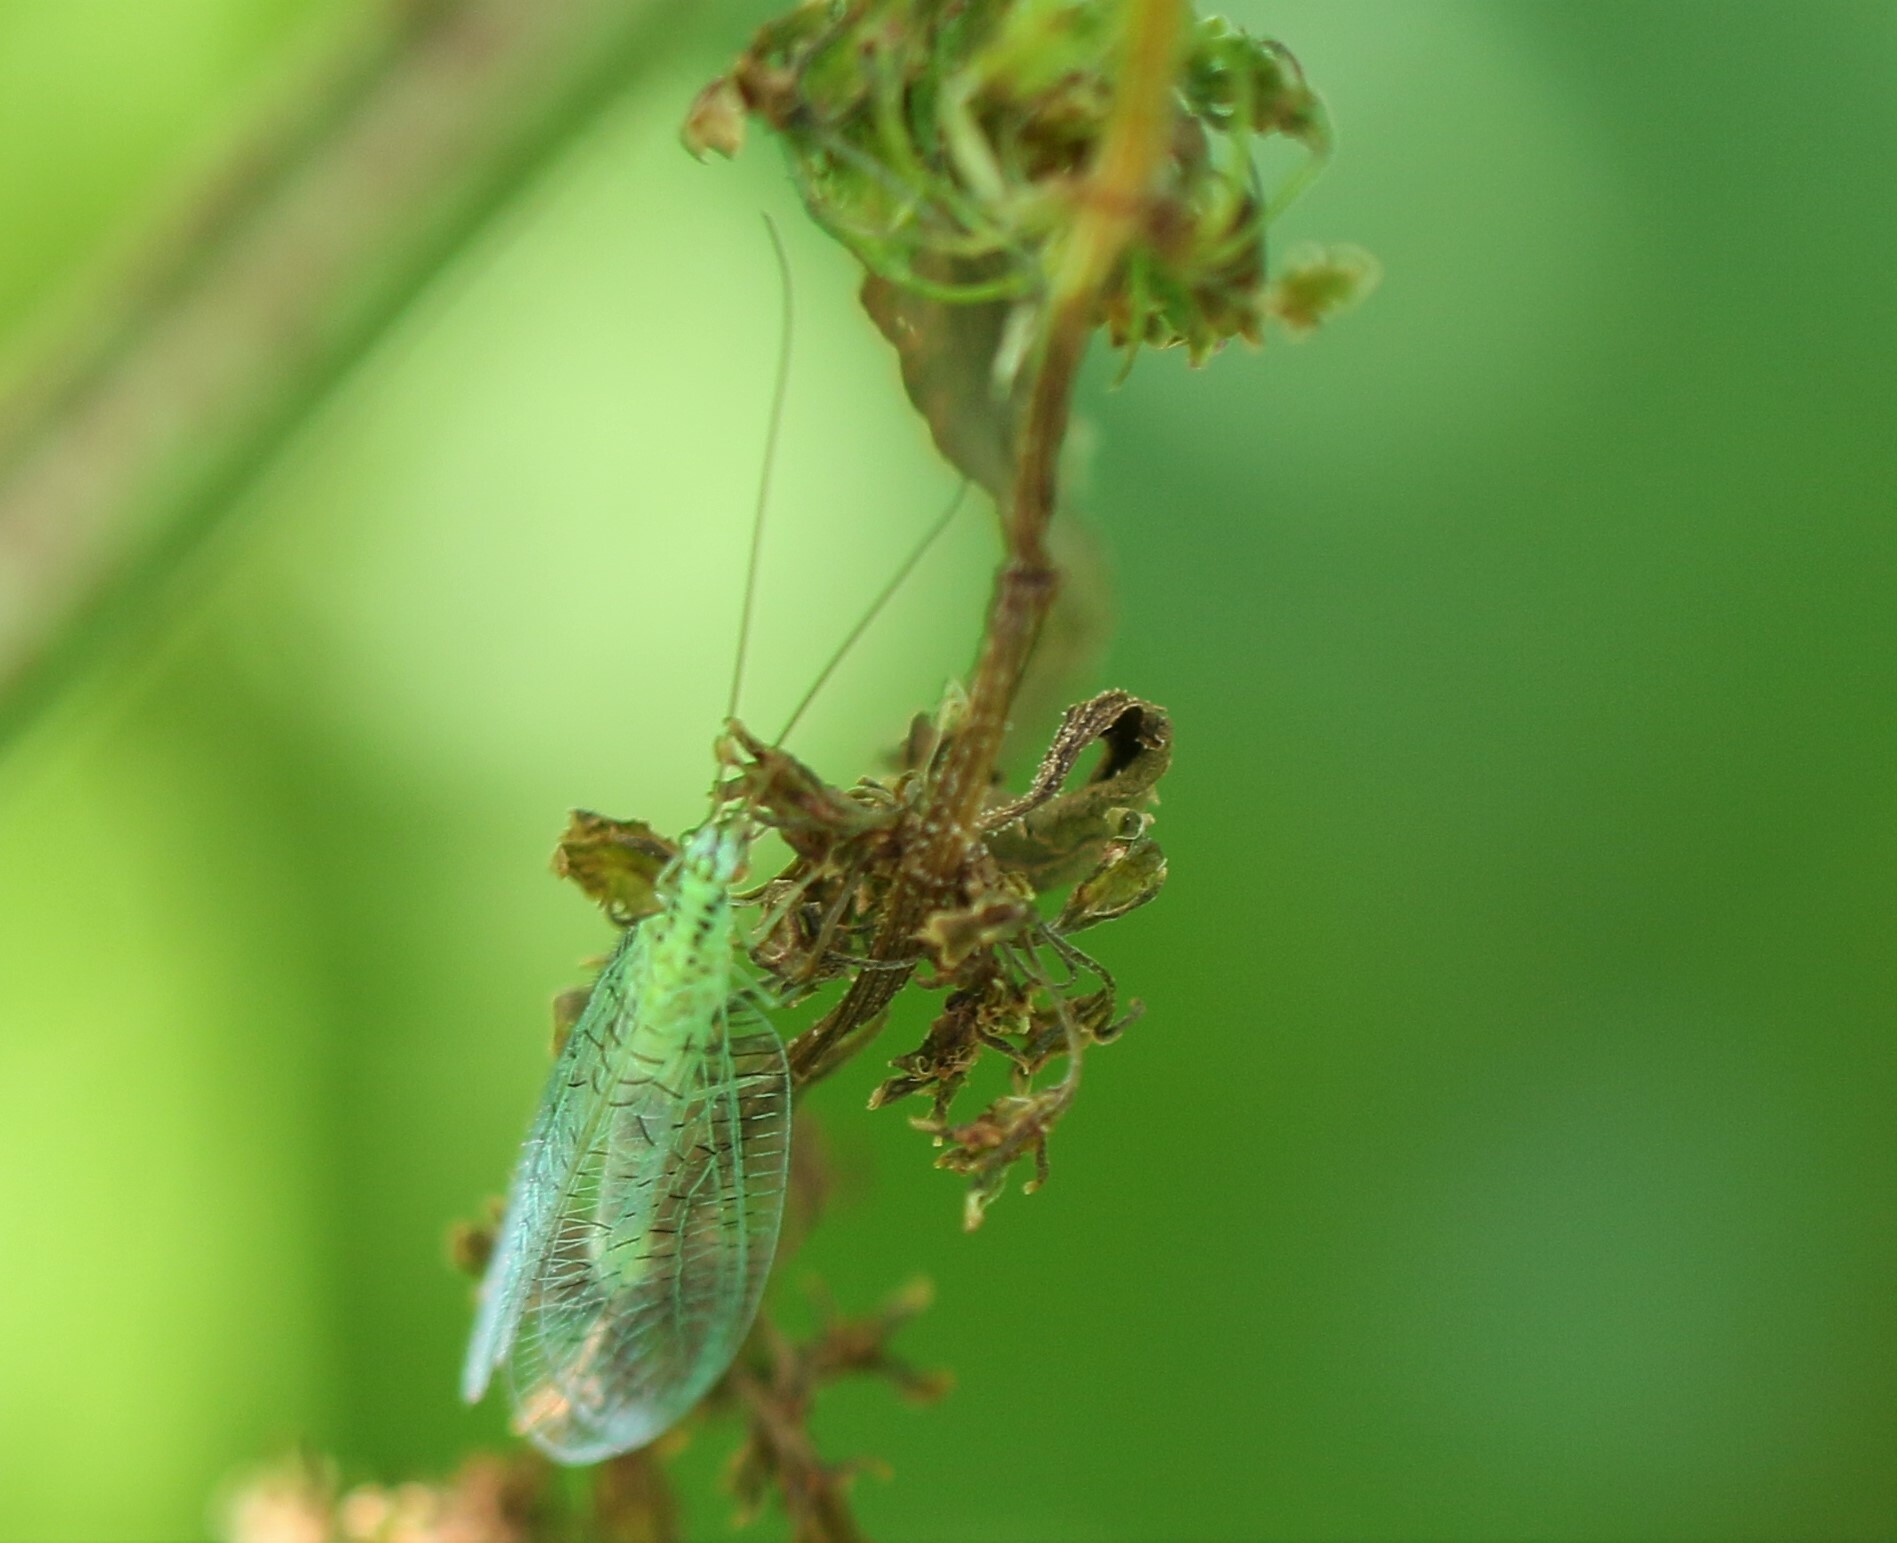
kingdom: Animalia
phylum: Arthropoda
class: Insecta
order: Neuroptera
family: Chrysopidae
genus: Chrysopa
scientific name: Chrysopa chi
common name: X-marked green lacewing
